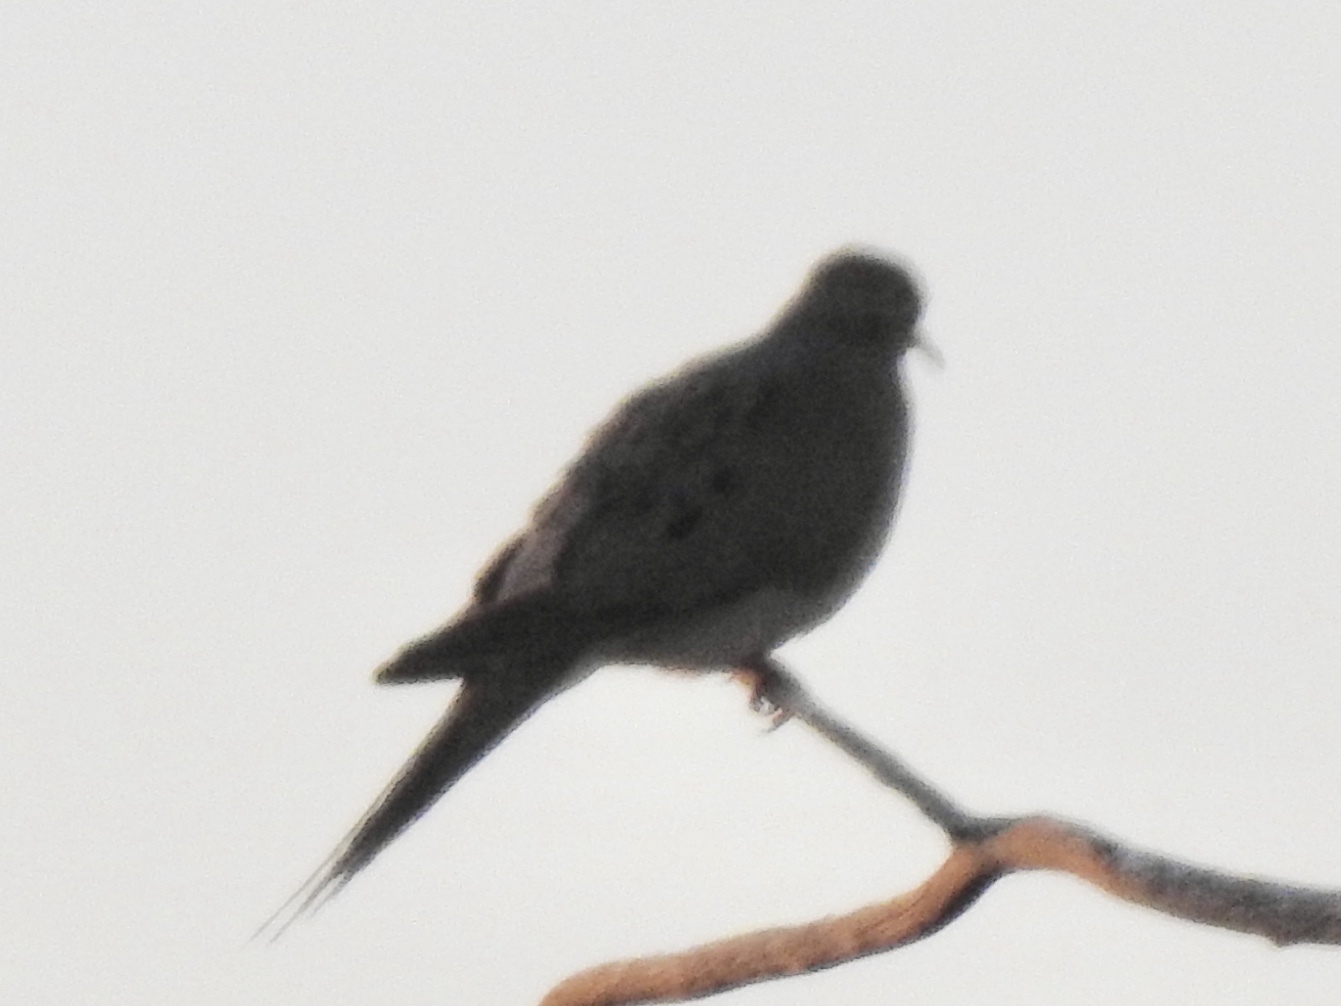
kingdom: Animalia
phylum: Chordata
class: Aves
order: Columbiformes
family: Columbidae
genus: Zenaida
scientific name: Zenaida macroura
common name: Mourning dove
